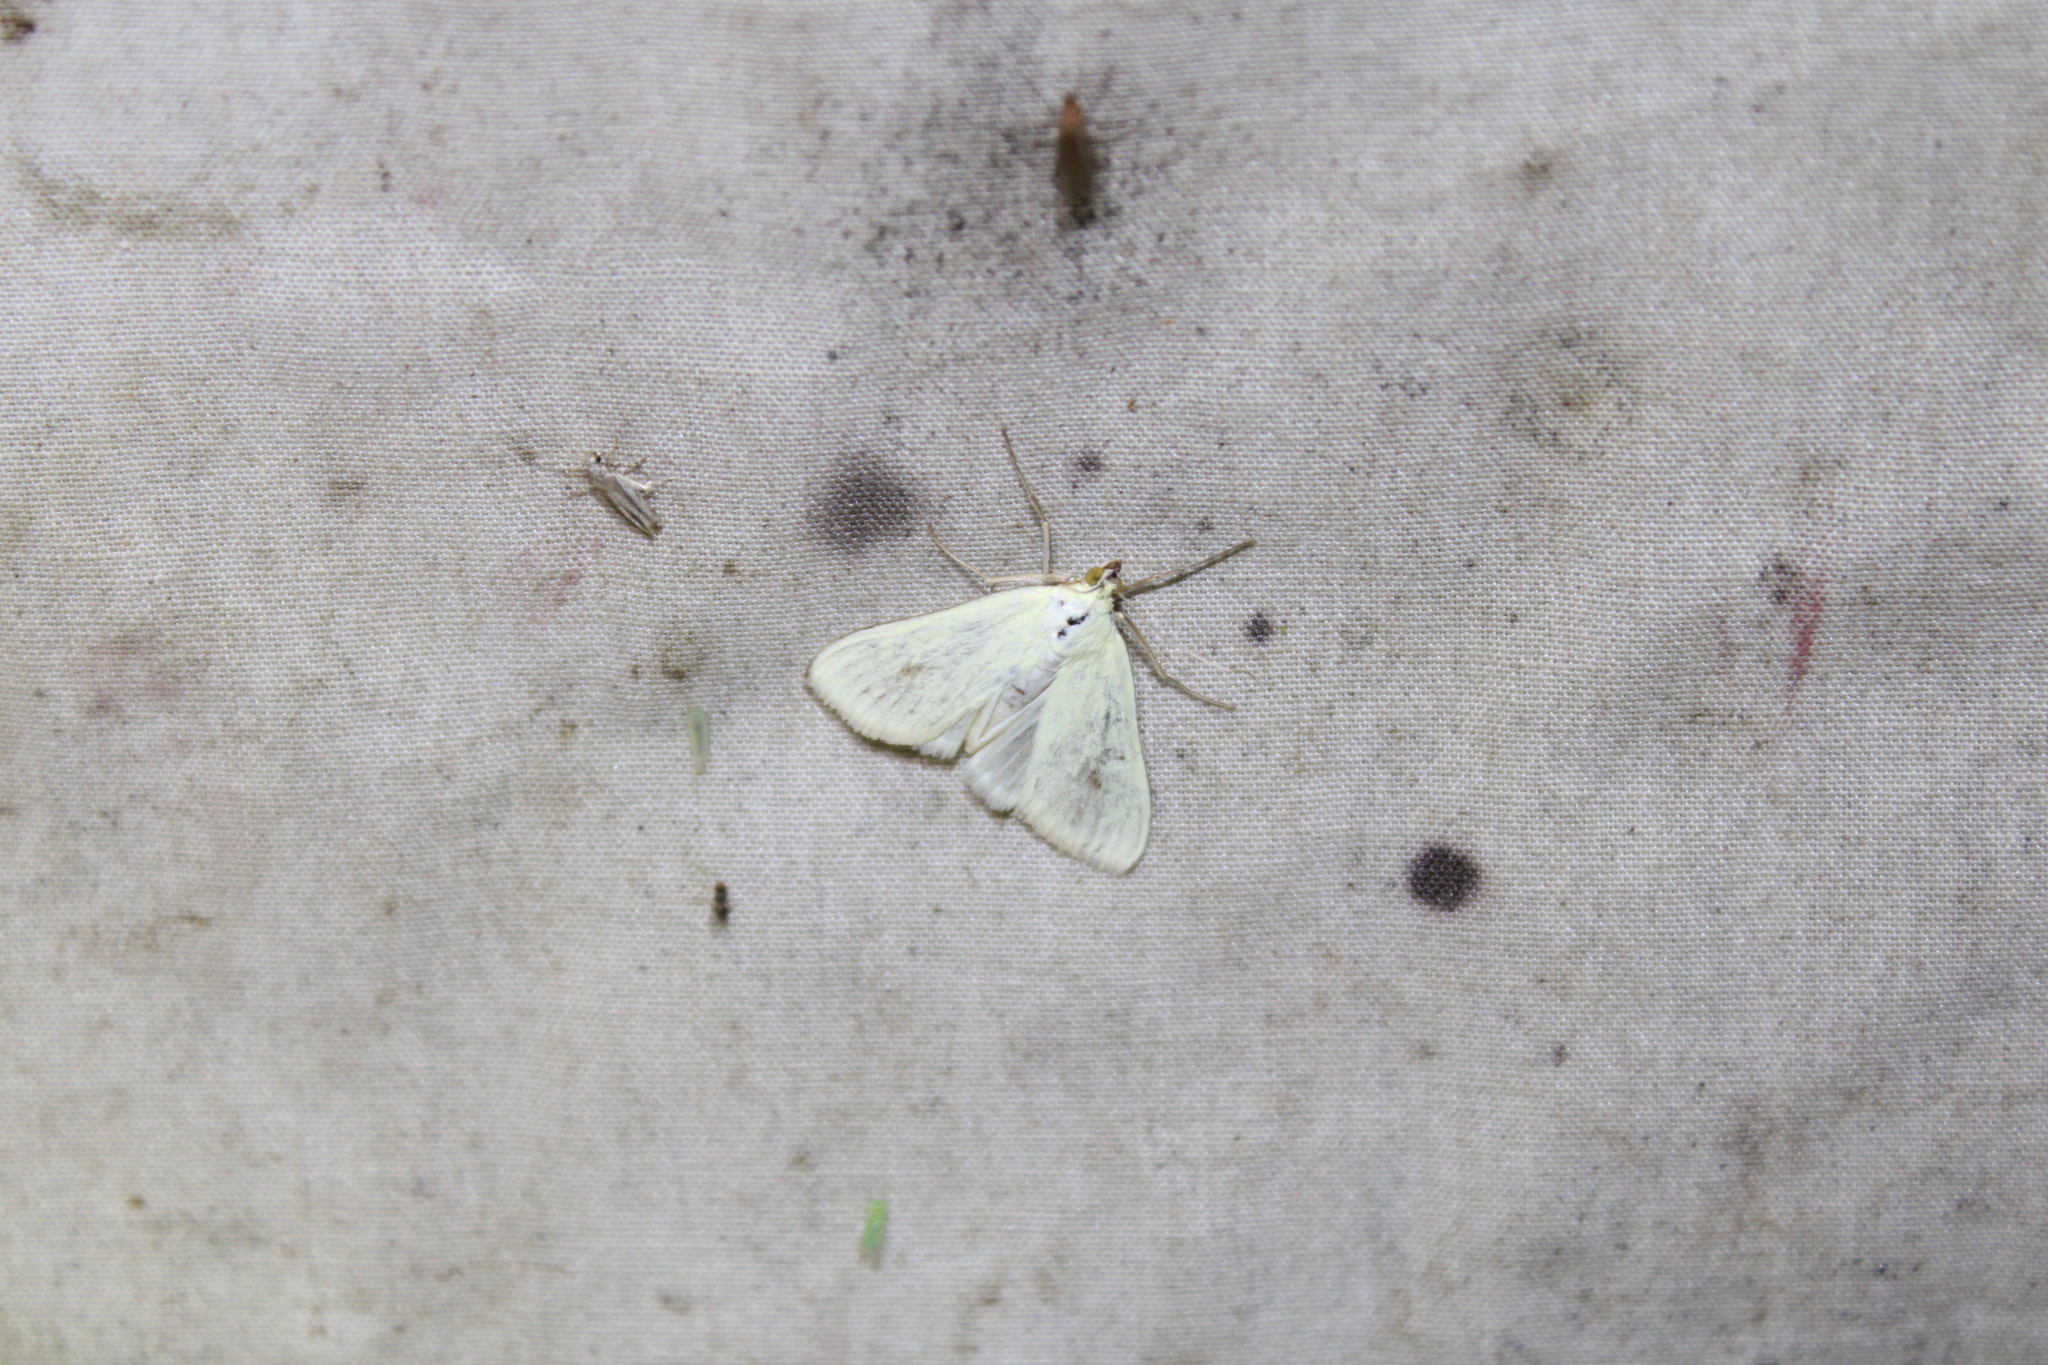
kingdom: Animalia
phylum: Arthropoda
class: Insecta
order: Lepidoptera
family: Crambidae
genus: Sitochroa
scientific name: Sitochroa palealis
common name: Greenish-yellow sitochroa moth
